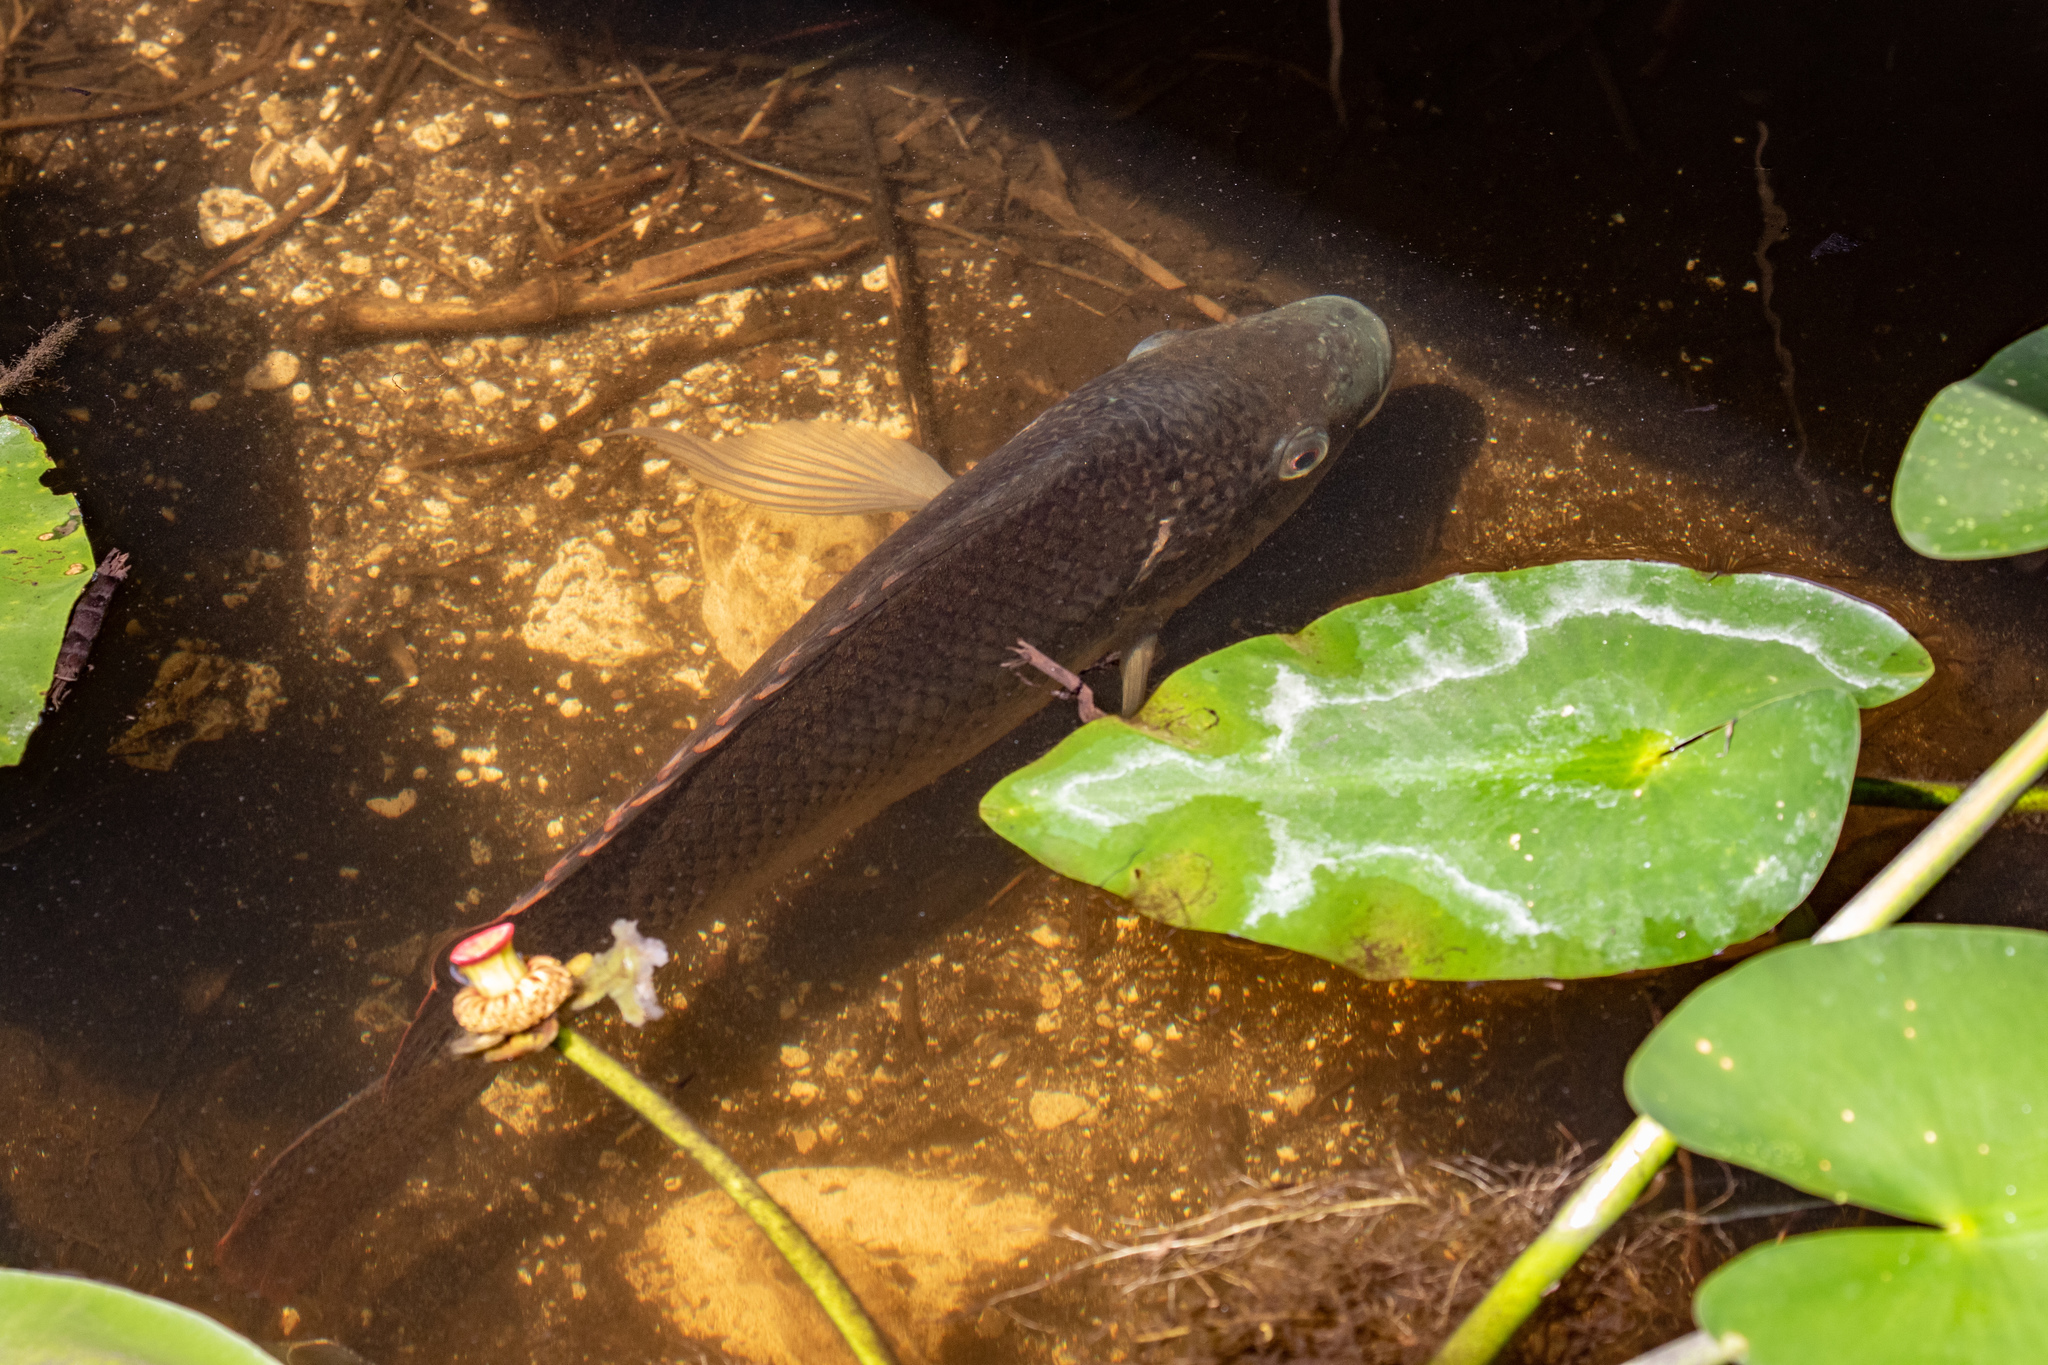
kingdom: Animalia
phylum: Chordata
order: Perciformes
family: Cichlidae
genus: Oreochromis
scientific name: Oreochromis aureus
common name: Blue tilapia
